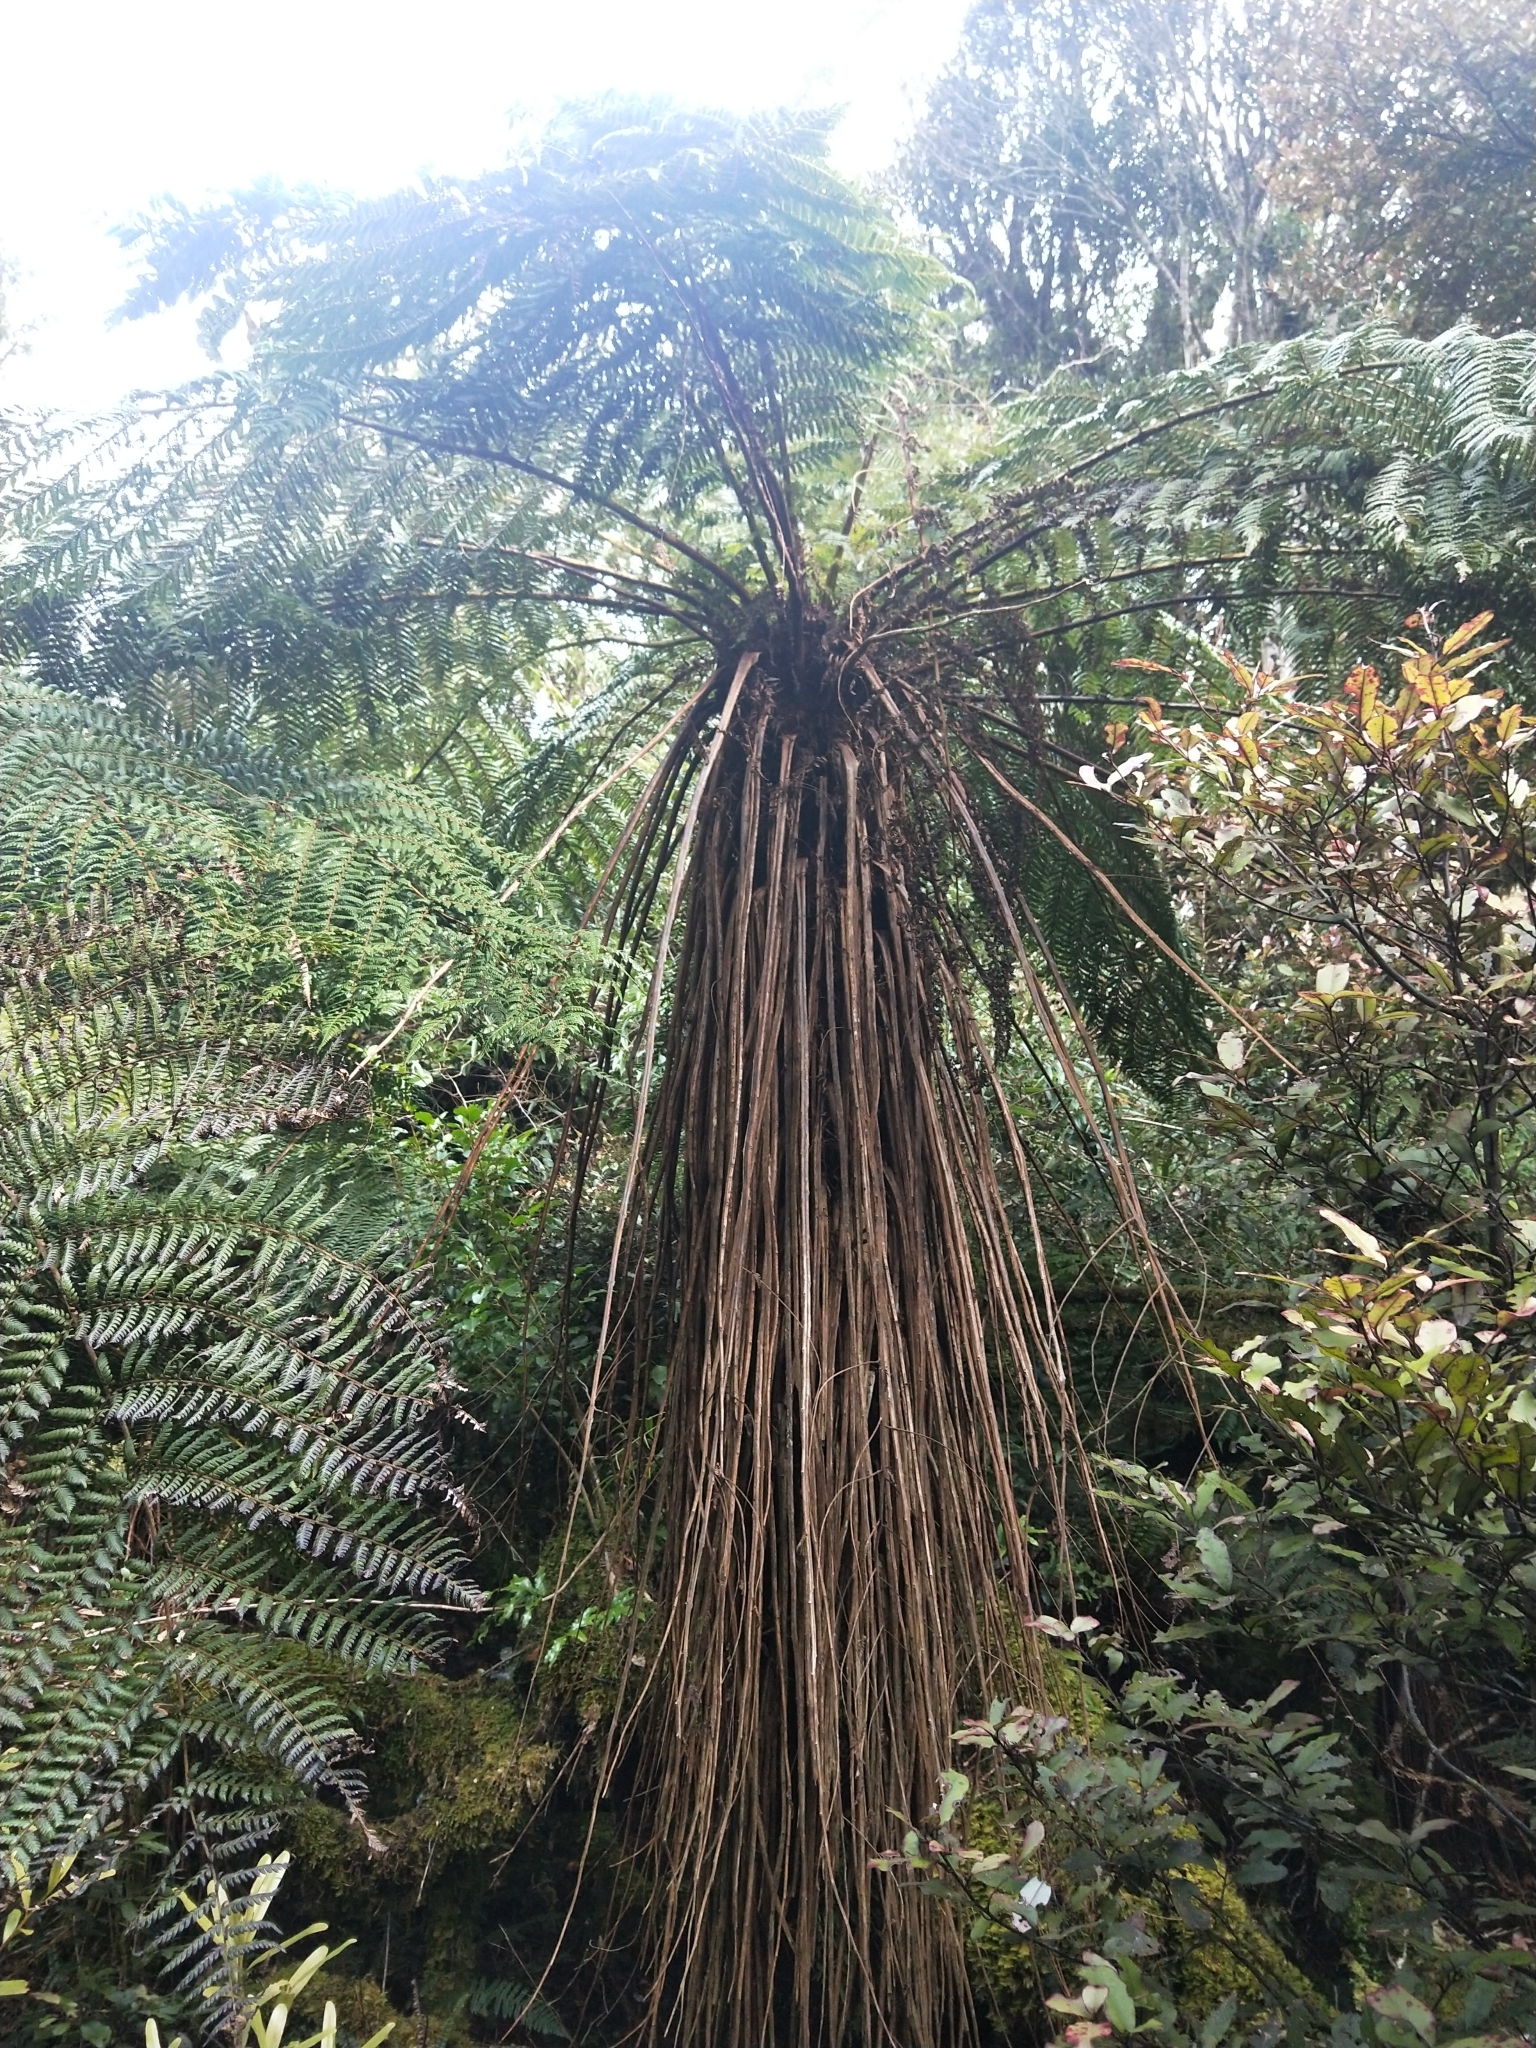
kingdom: Plantae
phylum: Tracheophyta
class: Polypodiopsida
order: Cyatheales
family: Cyatheaceae
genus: Alsophila
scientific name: Alsophila smithii
